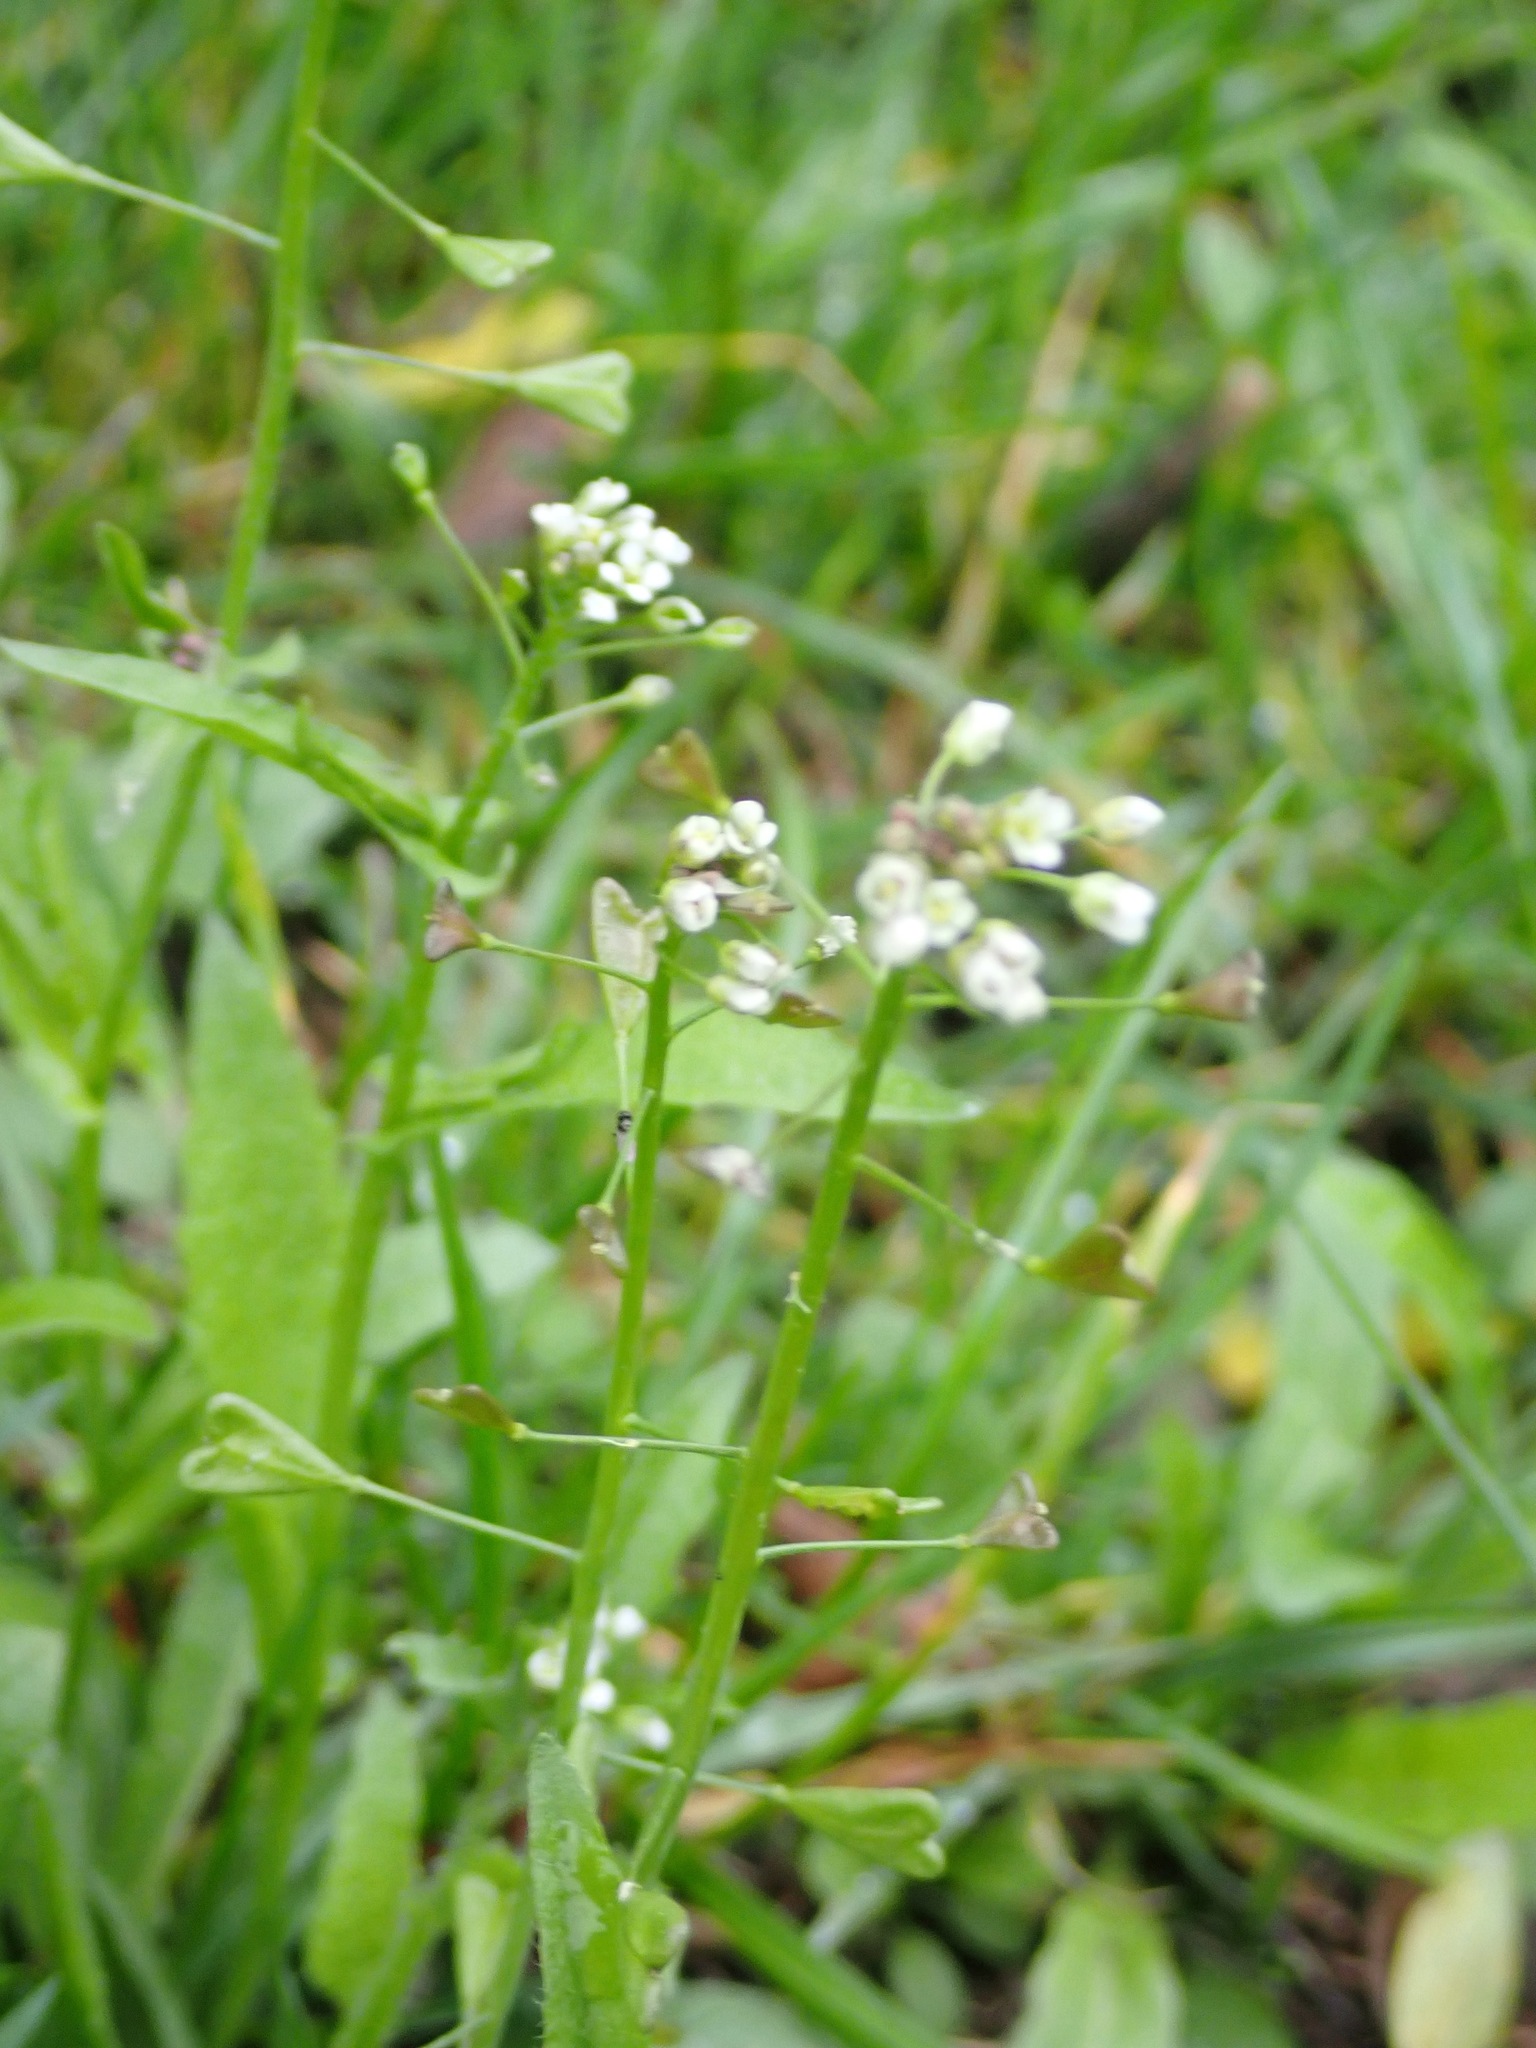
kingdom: Plantae
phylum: Tracheophyta
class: Magnoliopsida
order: Brassicales
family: Brassicaceae
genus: Capsella
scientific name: Capsella bursa-pastoris
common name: Shepherd's purse
